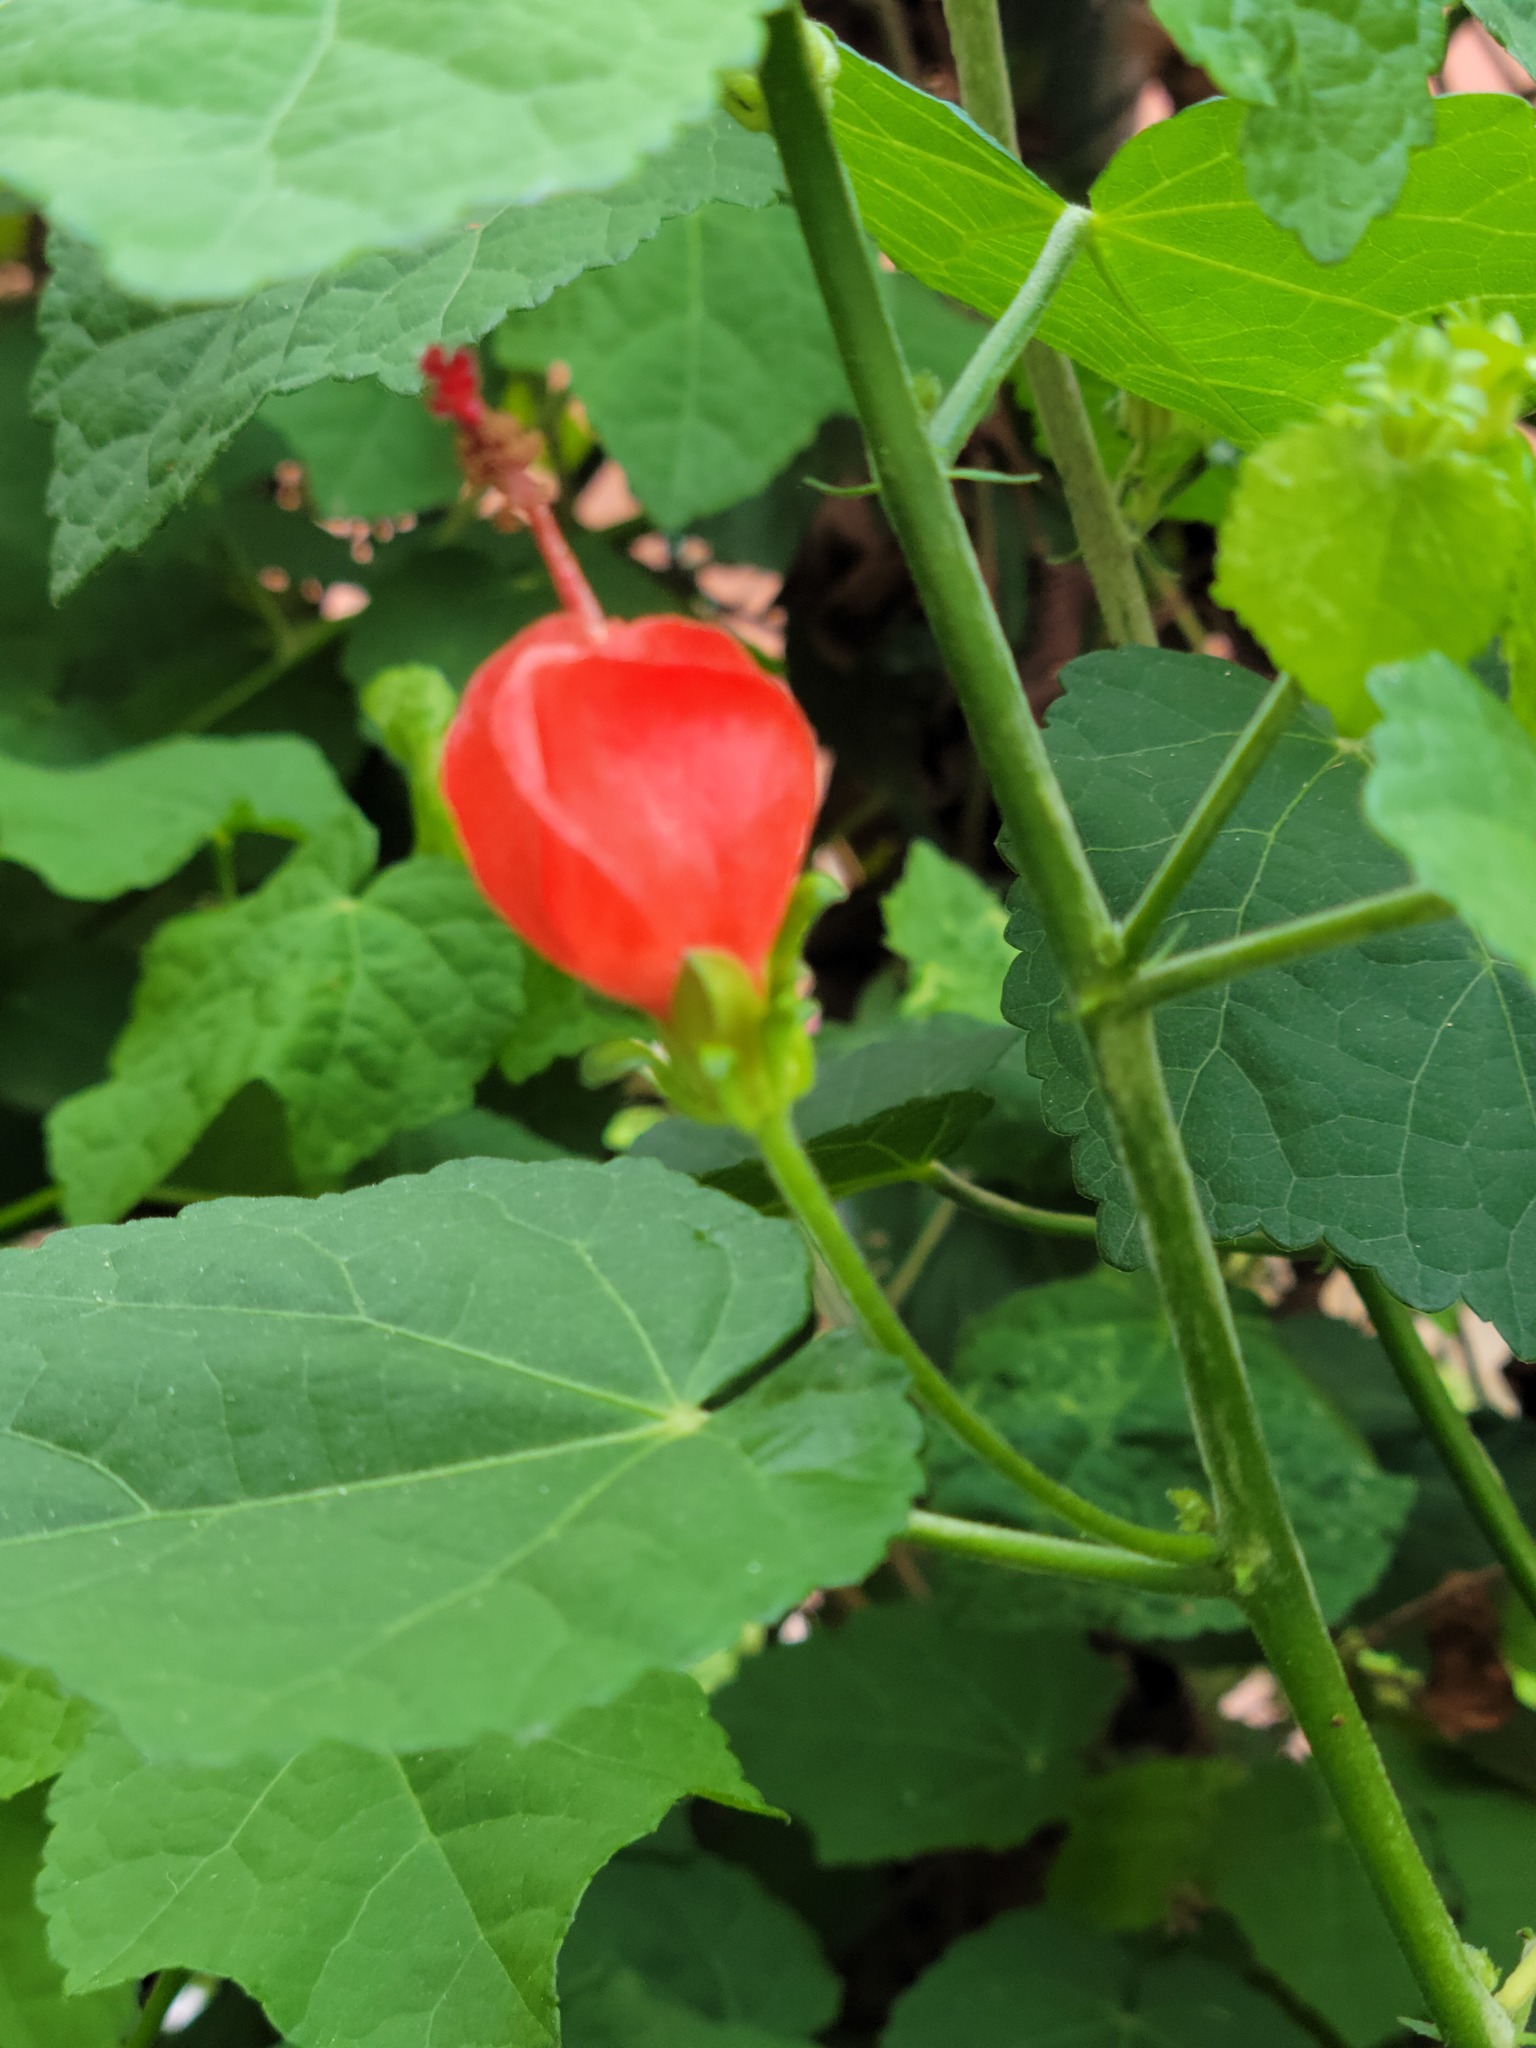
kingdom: Plantae
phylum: Tracheophyta
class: Magnoliopsida
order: Malvales
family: Malvaceae
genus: Malvaviscus
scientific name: Malvaviscus arboreus
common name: Wax mallow
